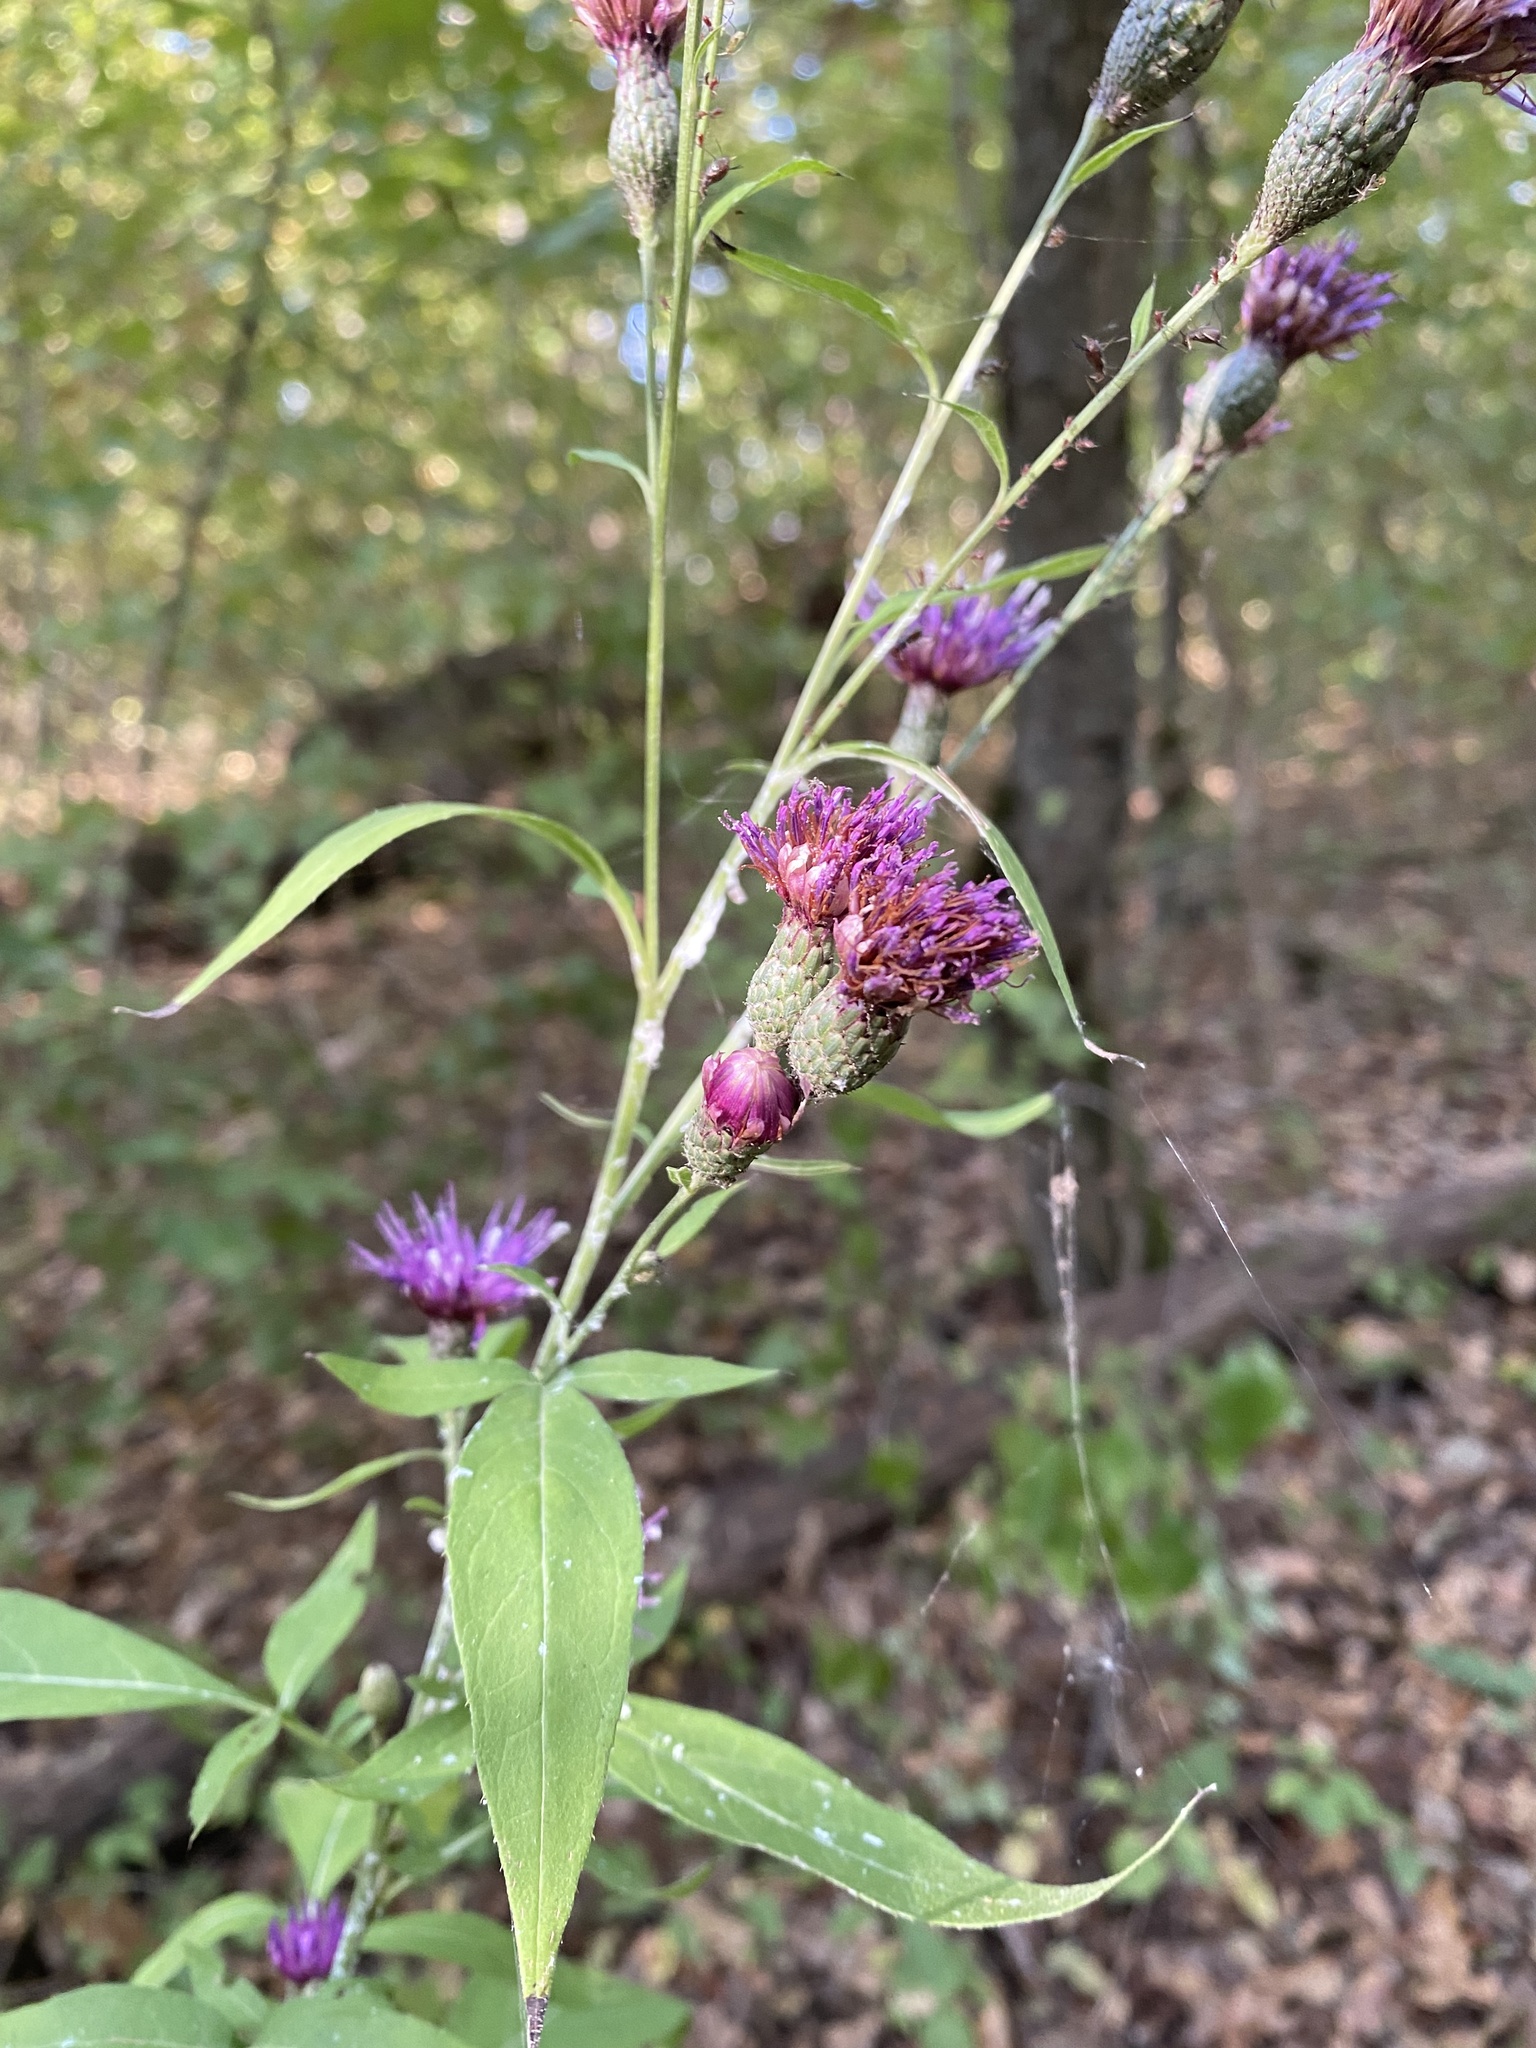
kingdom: Plantae
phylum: Tracheophyta
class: Magnoliopsida
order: Asterales
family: Asteraceae
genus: Klasea
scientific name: Klasea quinquefolia
